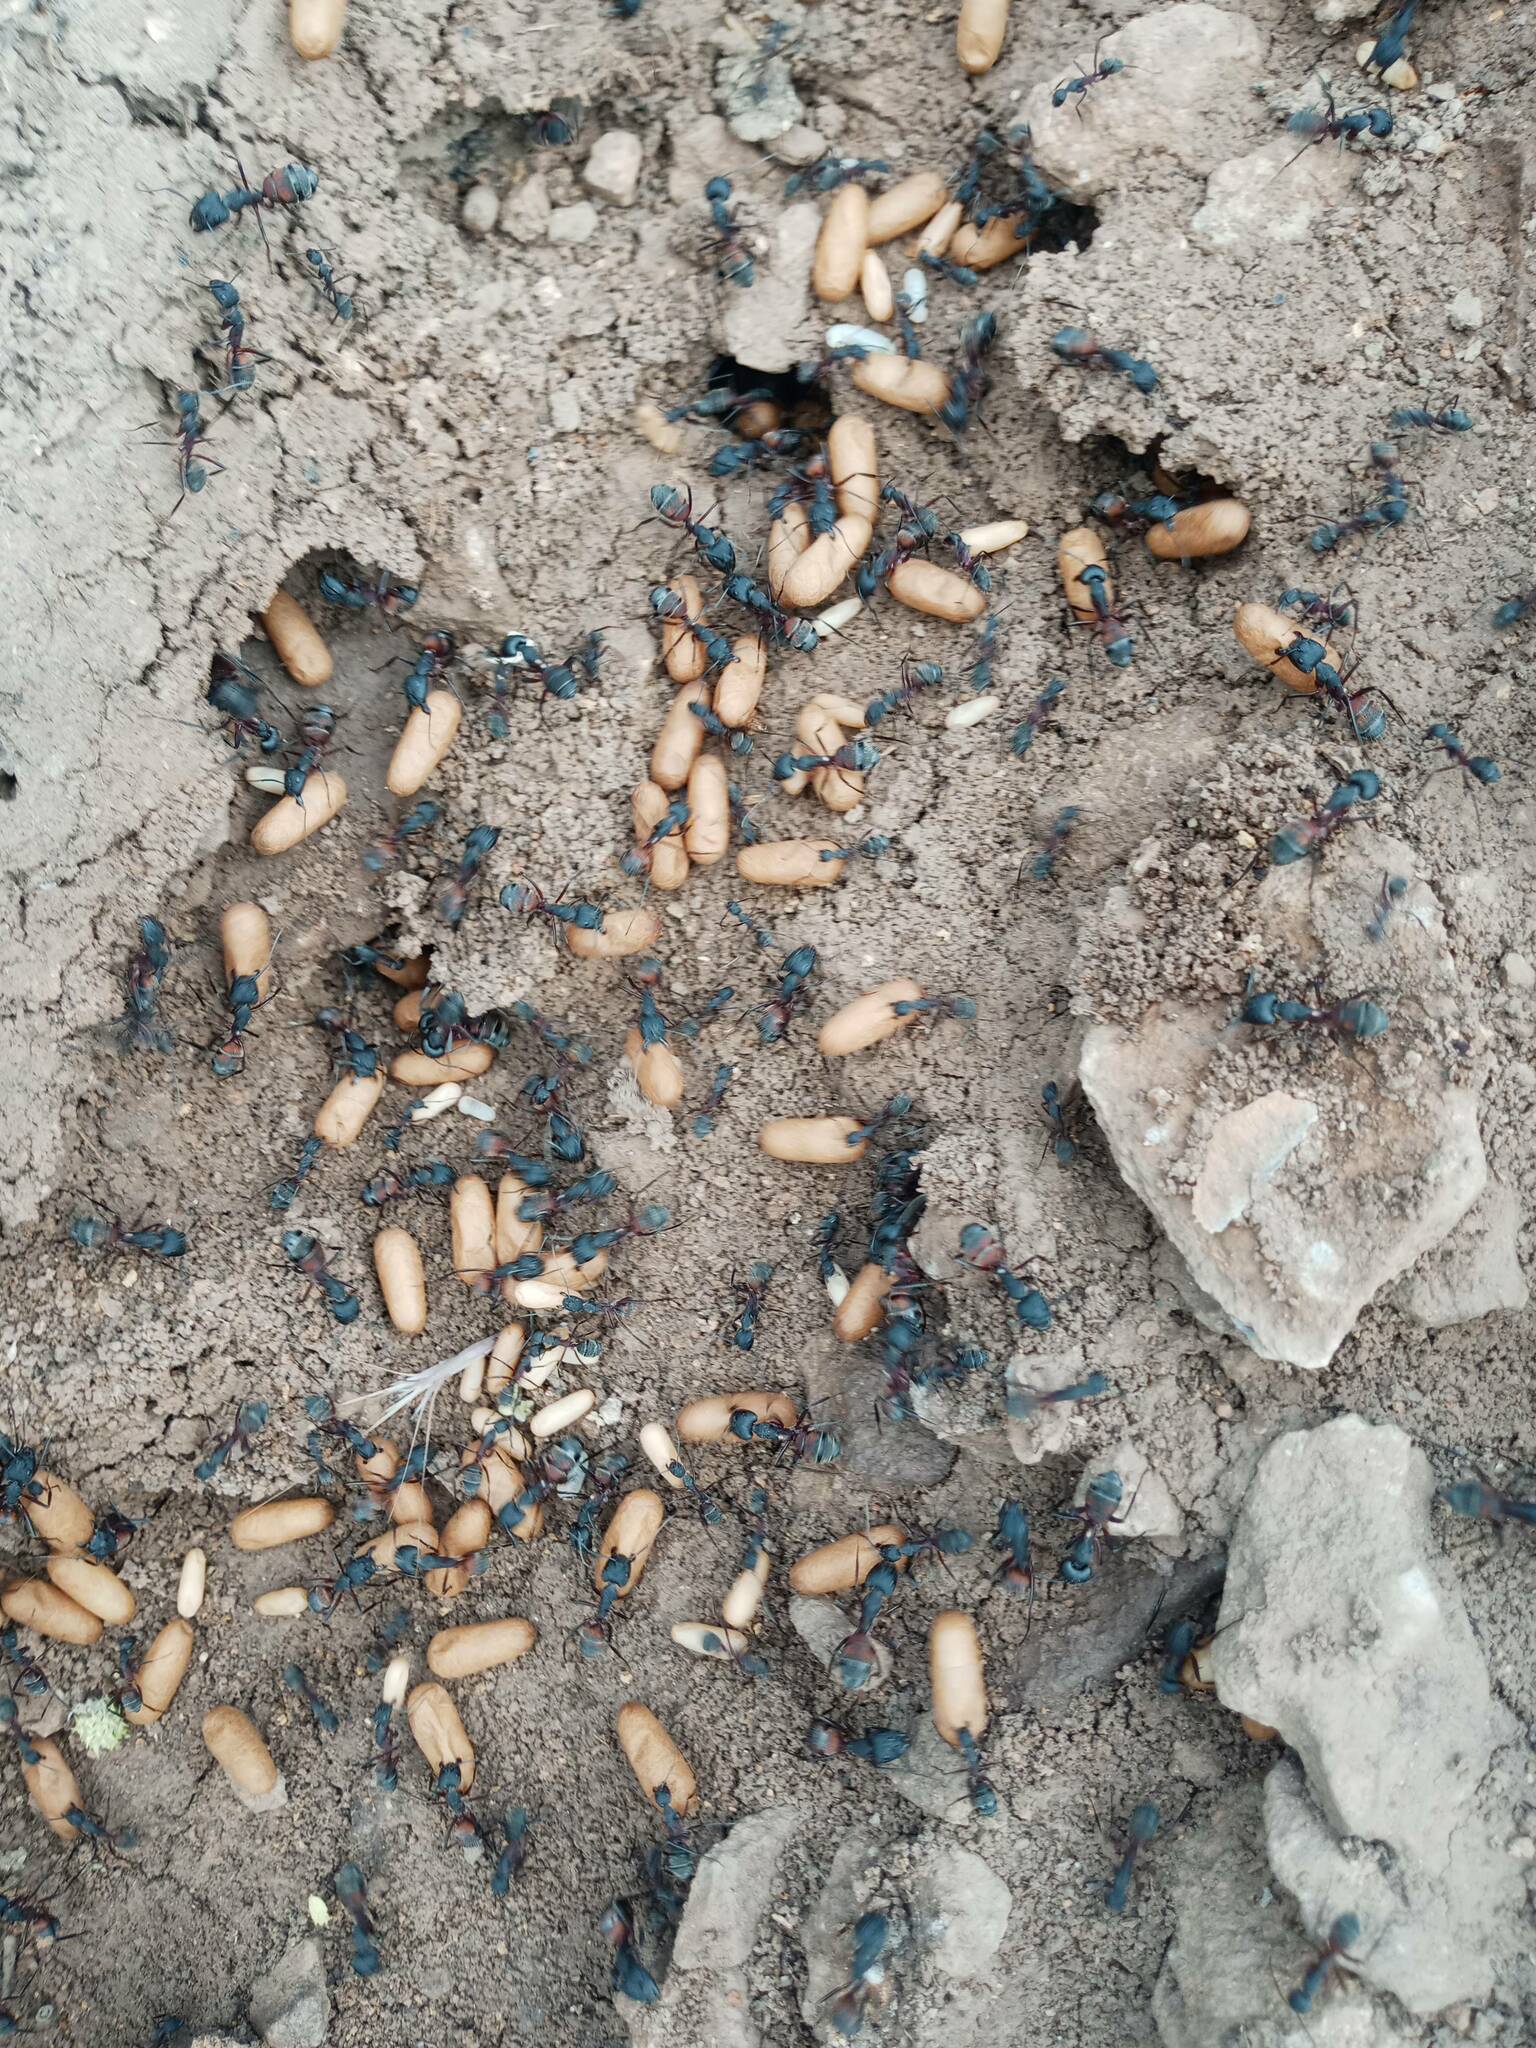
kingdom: Animalia
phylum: Arthropoda
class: Insecta
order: Hymenoptera
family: Formicidae
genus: Camponotus
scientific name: Camponotus cruentatus
